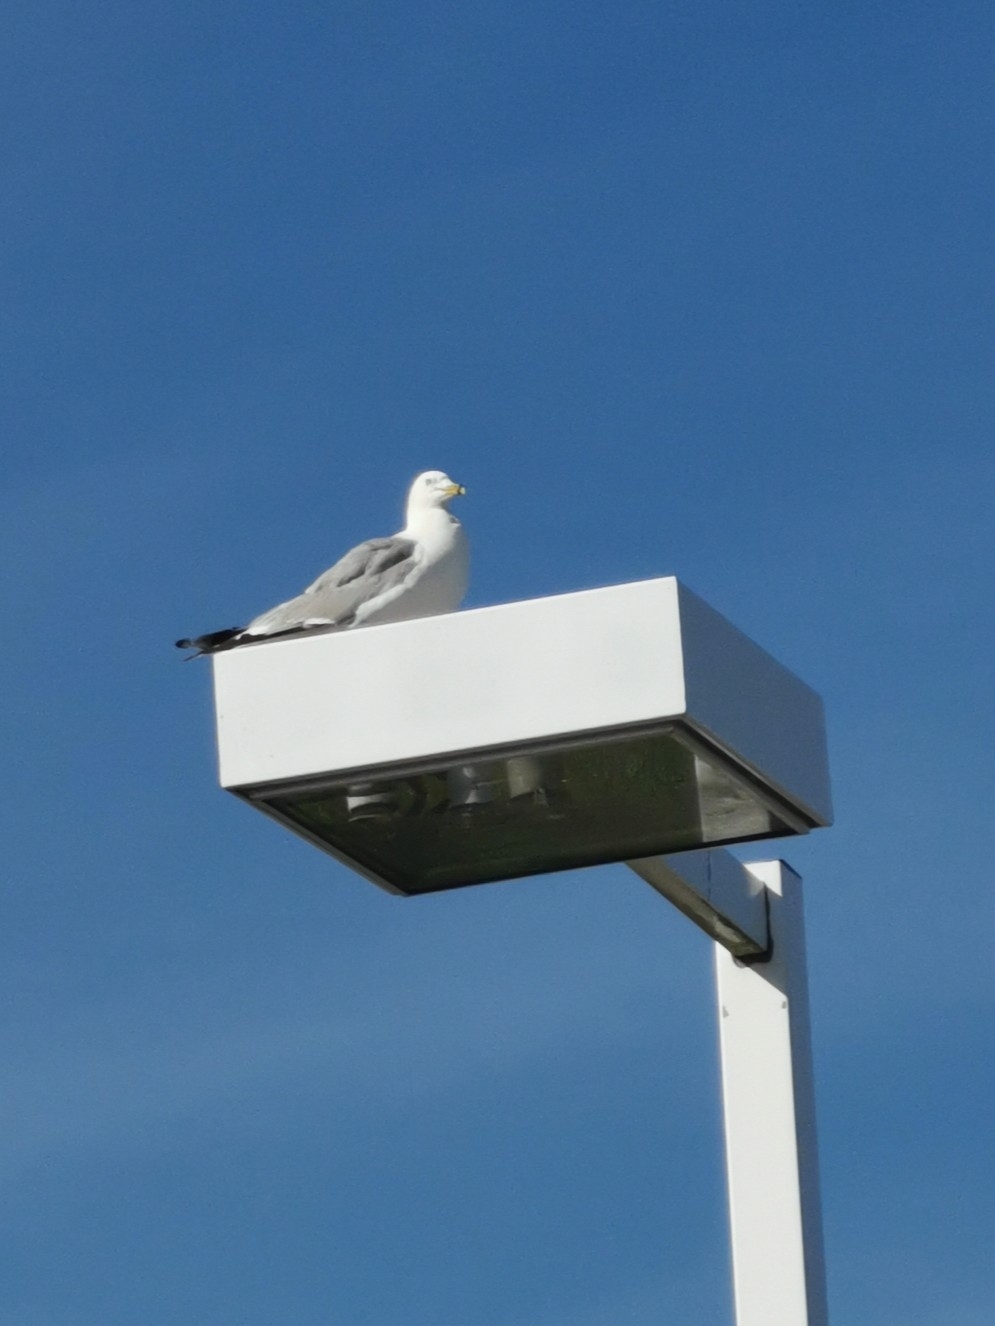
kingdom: Animalia
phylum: Chordata
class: Aves
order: Charadriiformes
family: Laridae
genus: Larus
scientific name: Larus delawarensis
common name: Ring-billed gull
